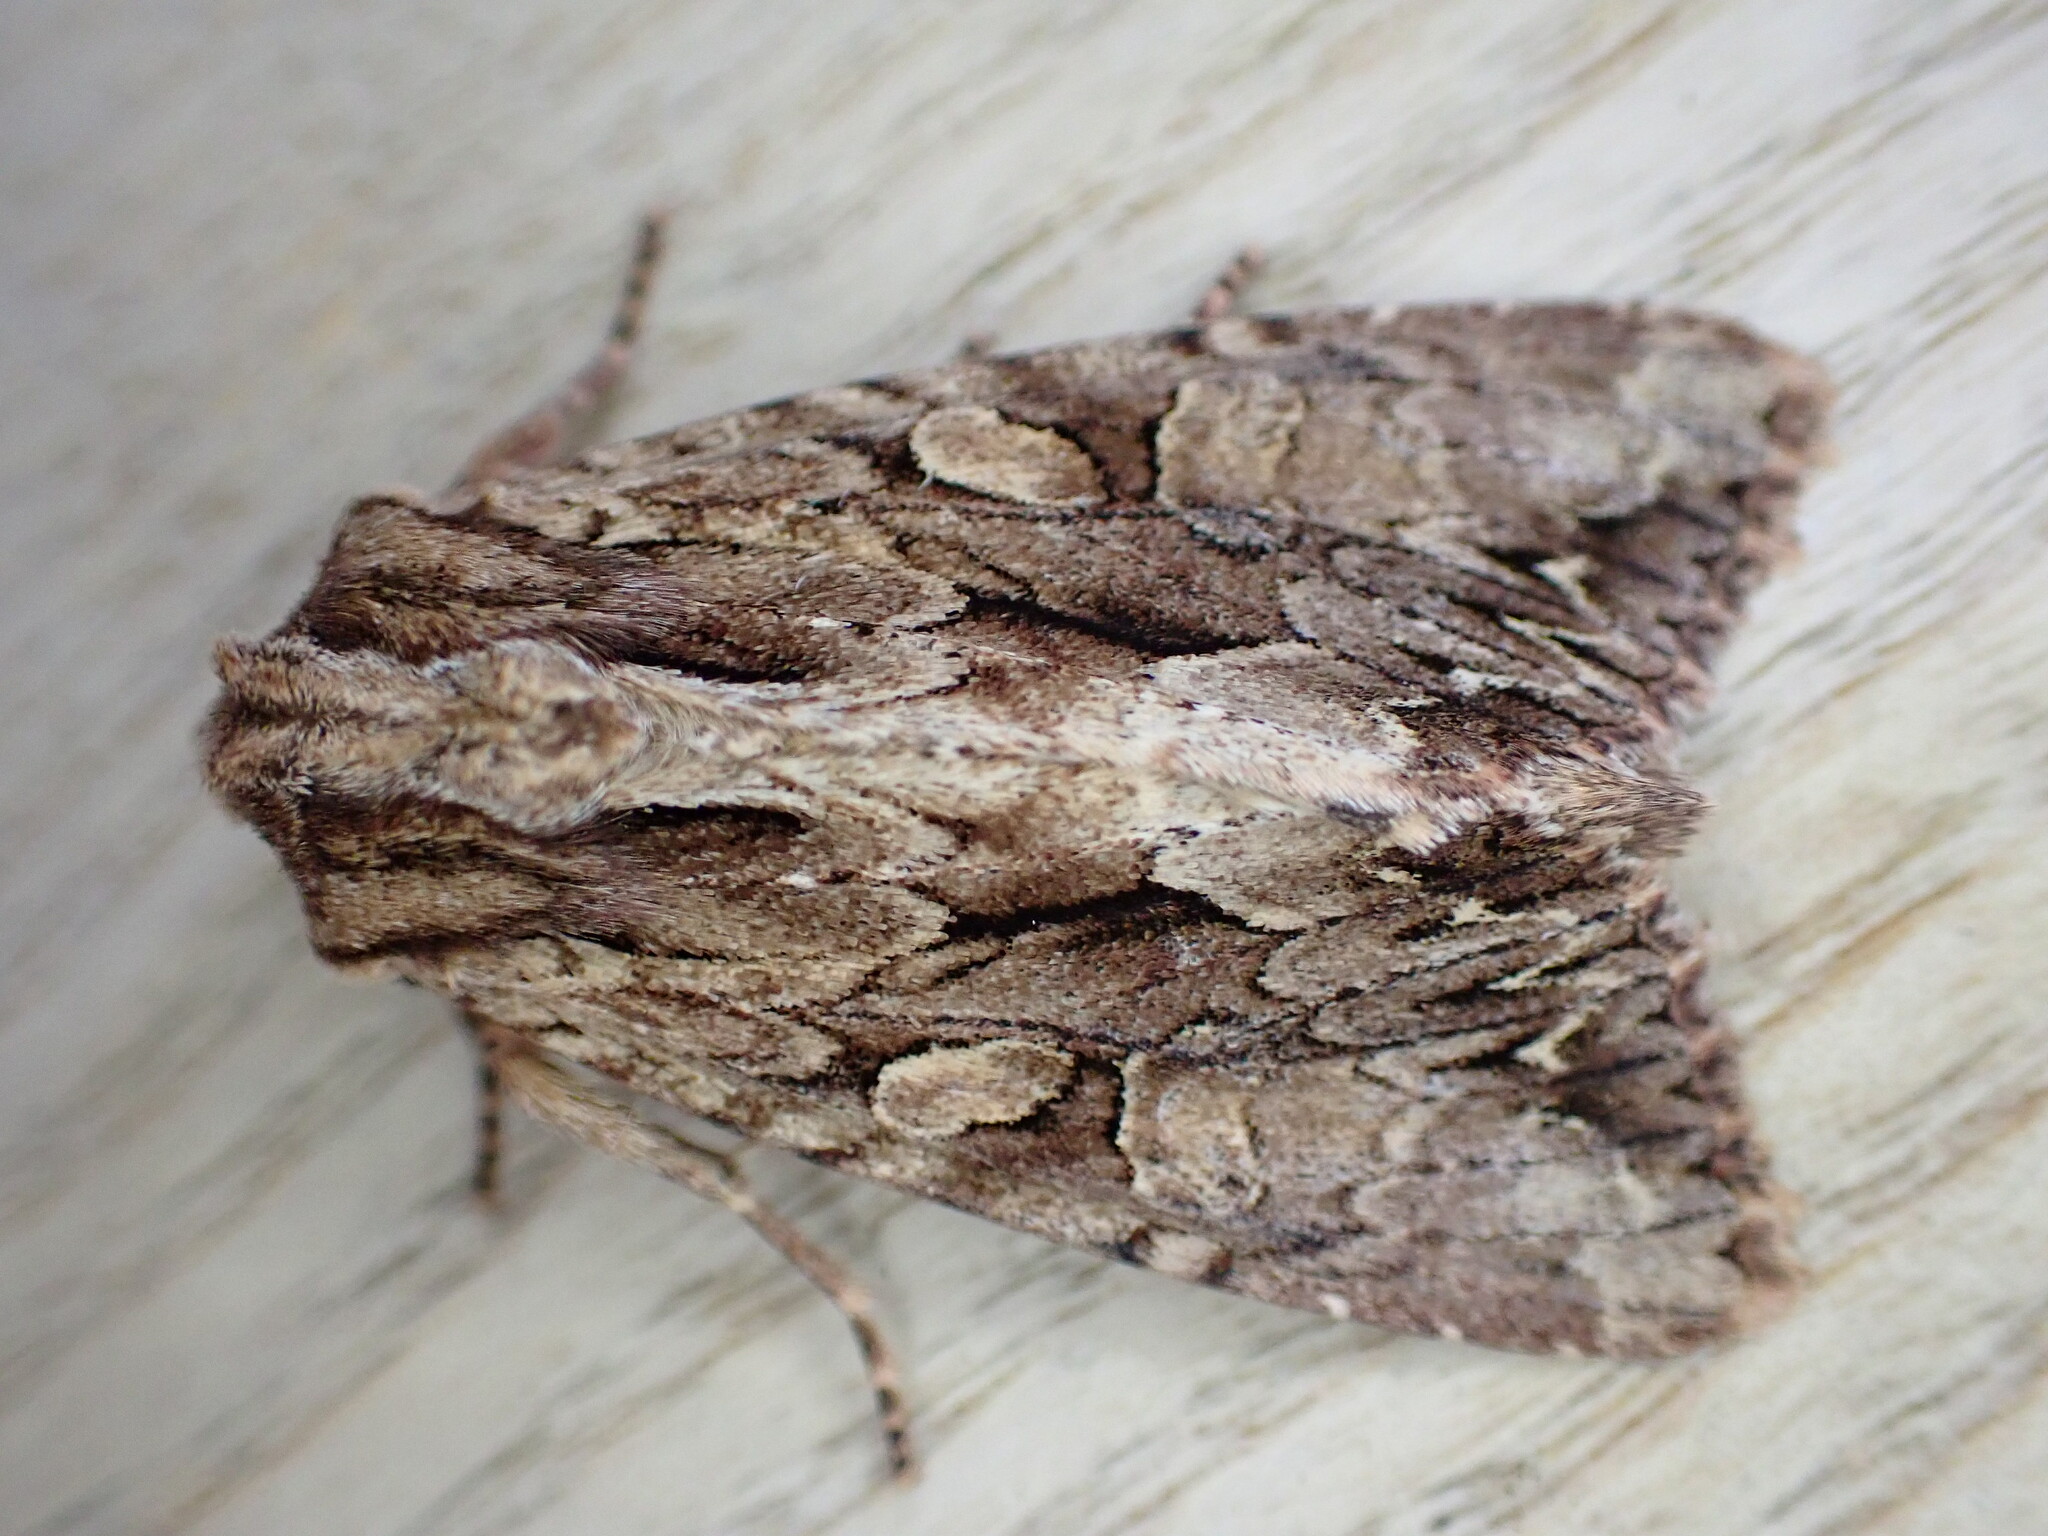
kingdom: Animalia
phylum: Arthropoda
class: Insecta
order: Lepidoptera
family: Noctuidae
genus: Apamea
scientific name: Apamea monoglypha
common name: Dark arches
